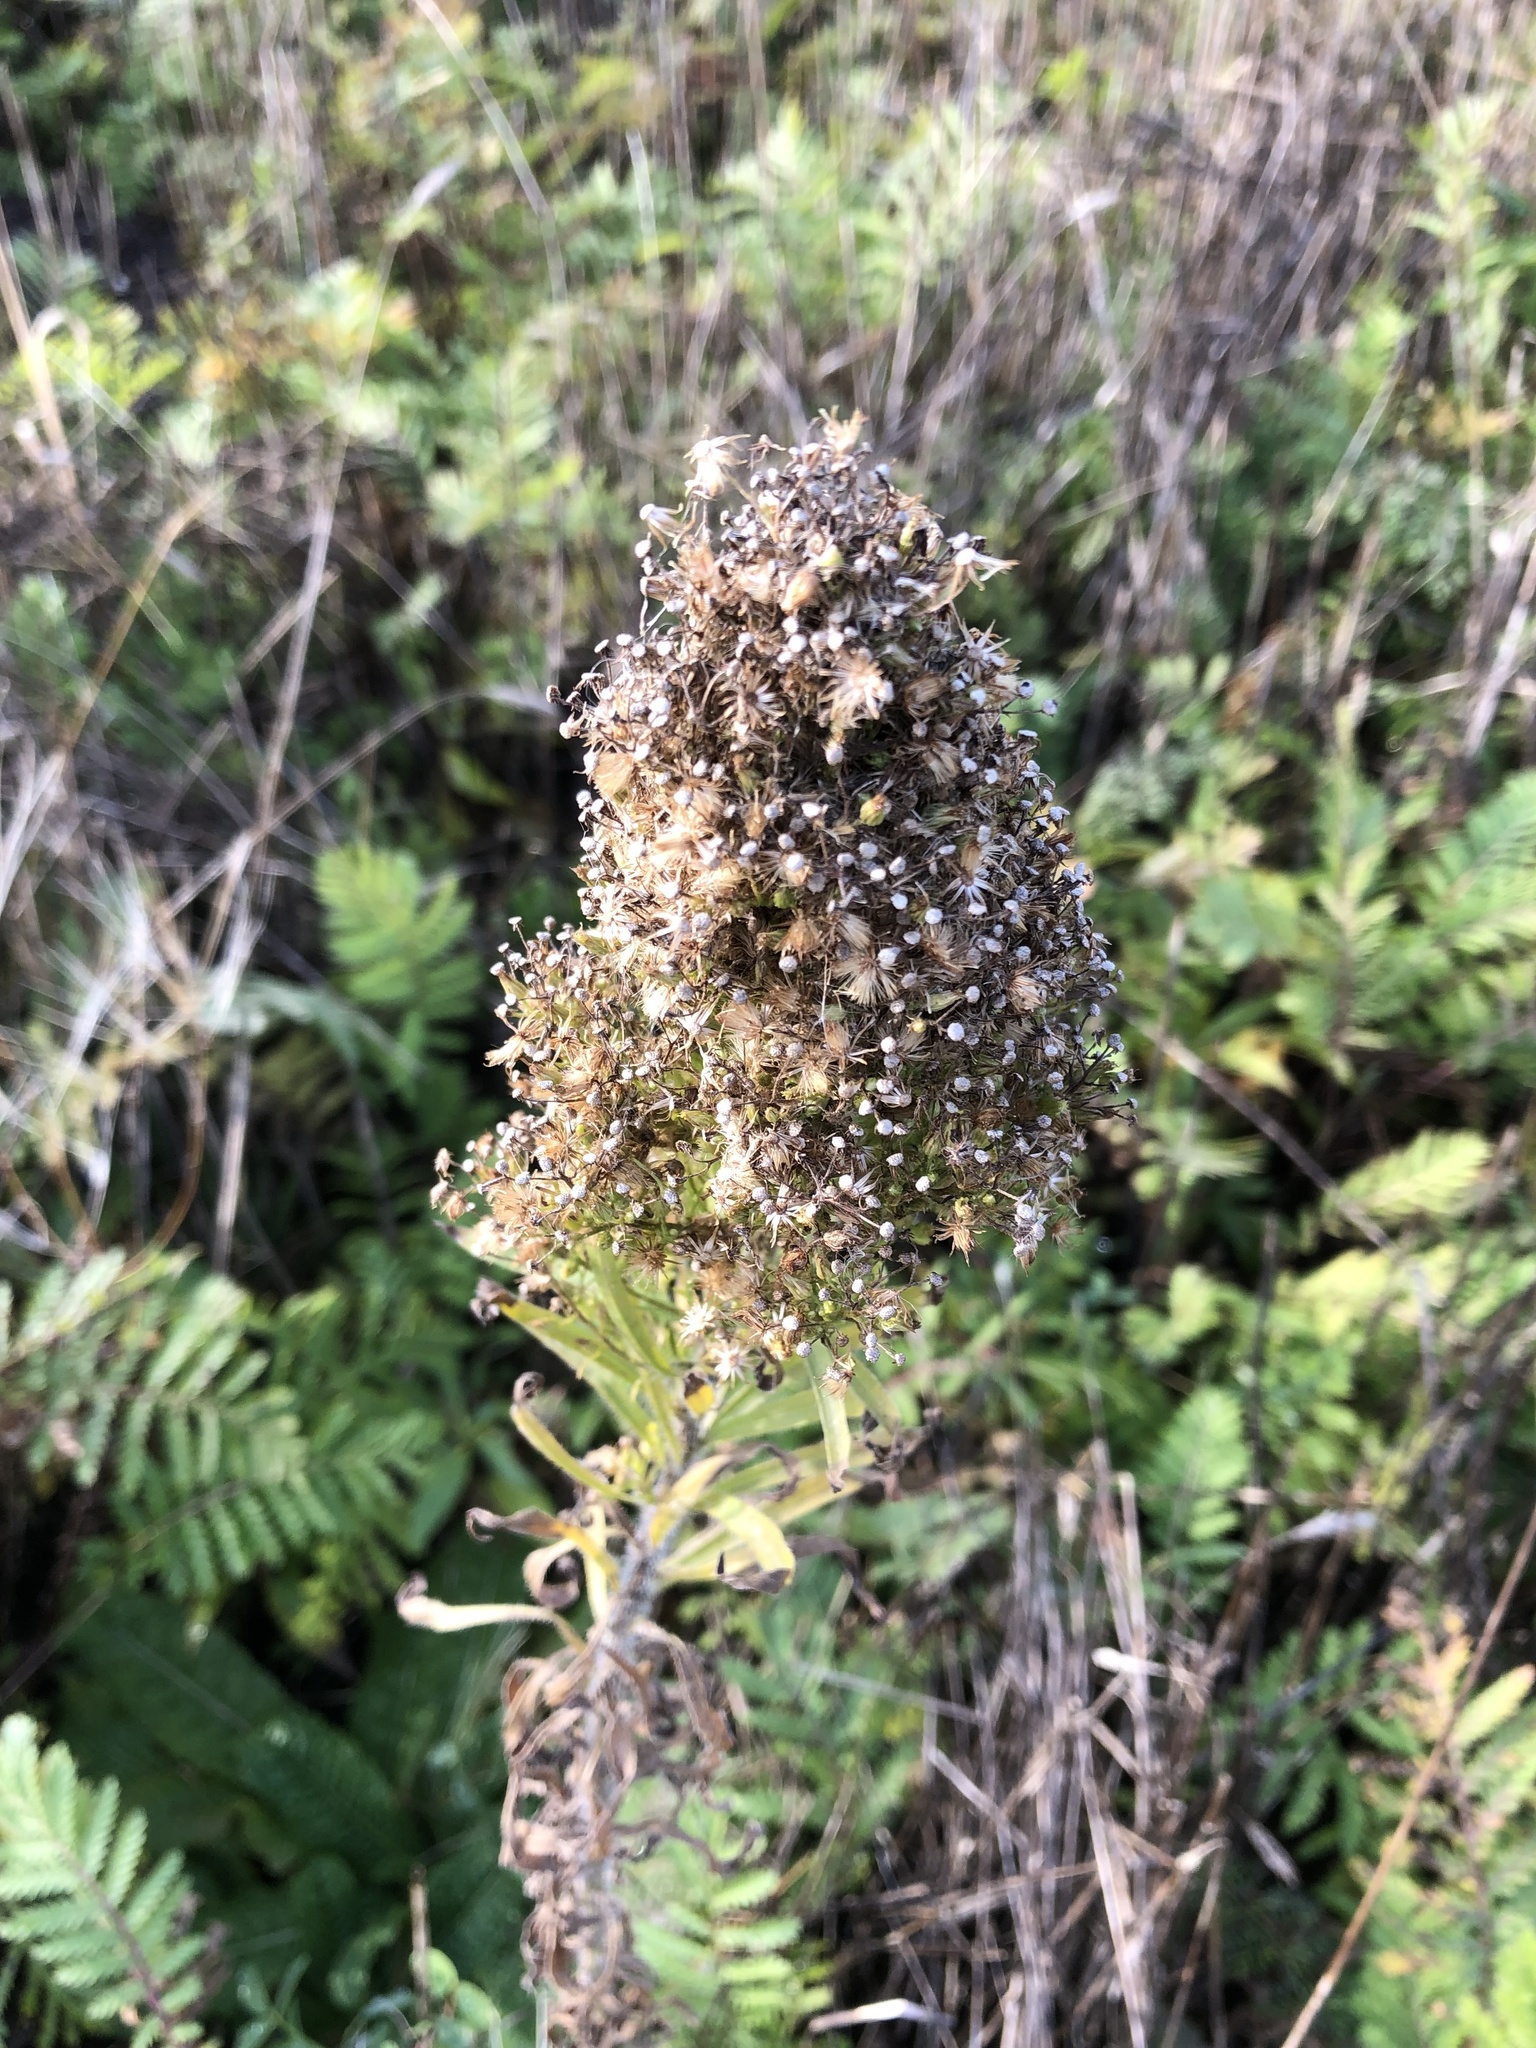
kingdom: Plantae
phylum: Tracheophyta
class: Magnoliopsida
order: Asterales
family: Asteraceae
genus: Erigeron
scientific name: Erigeron canadensis
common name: Canadian fleabane
